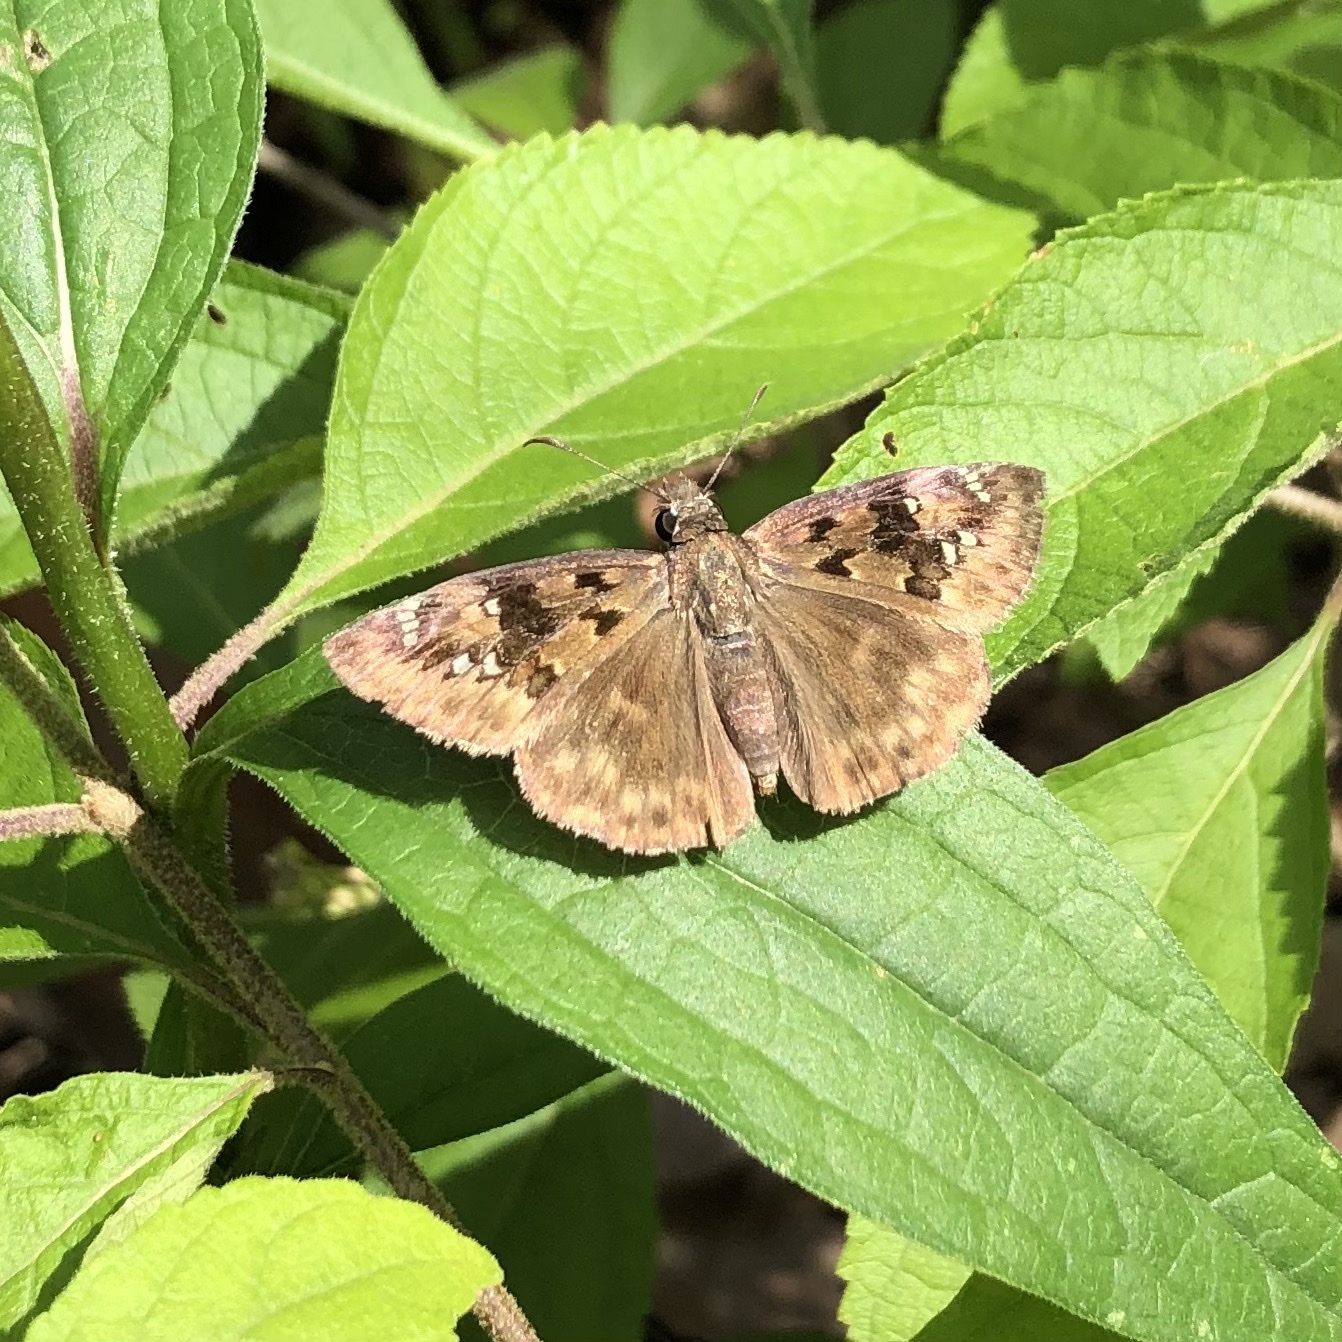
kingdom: Animalia
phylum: Arthropoda
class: Insecta
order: Lepidoptera
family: Hesperiidae
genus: Erynnis
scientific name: Erynnis horatius
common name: Horace's duskywing
